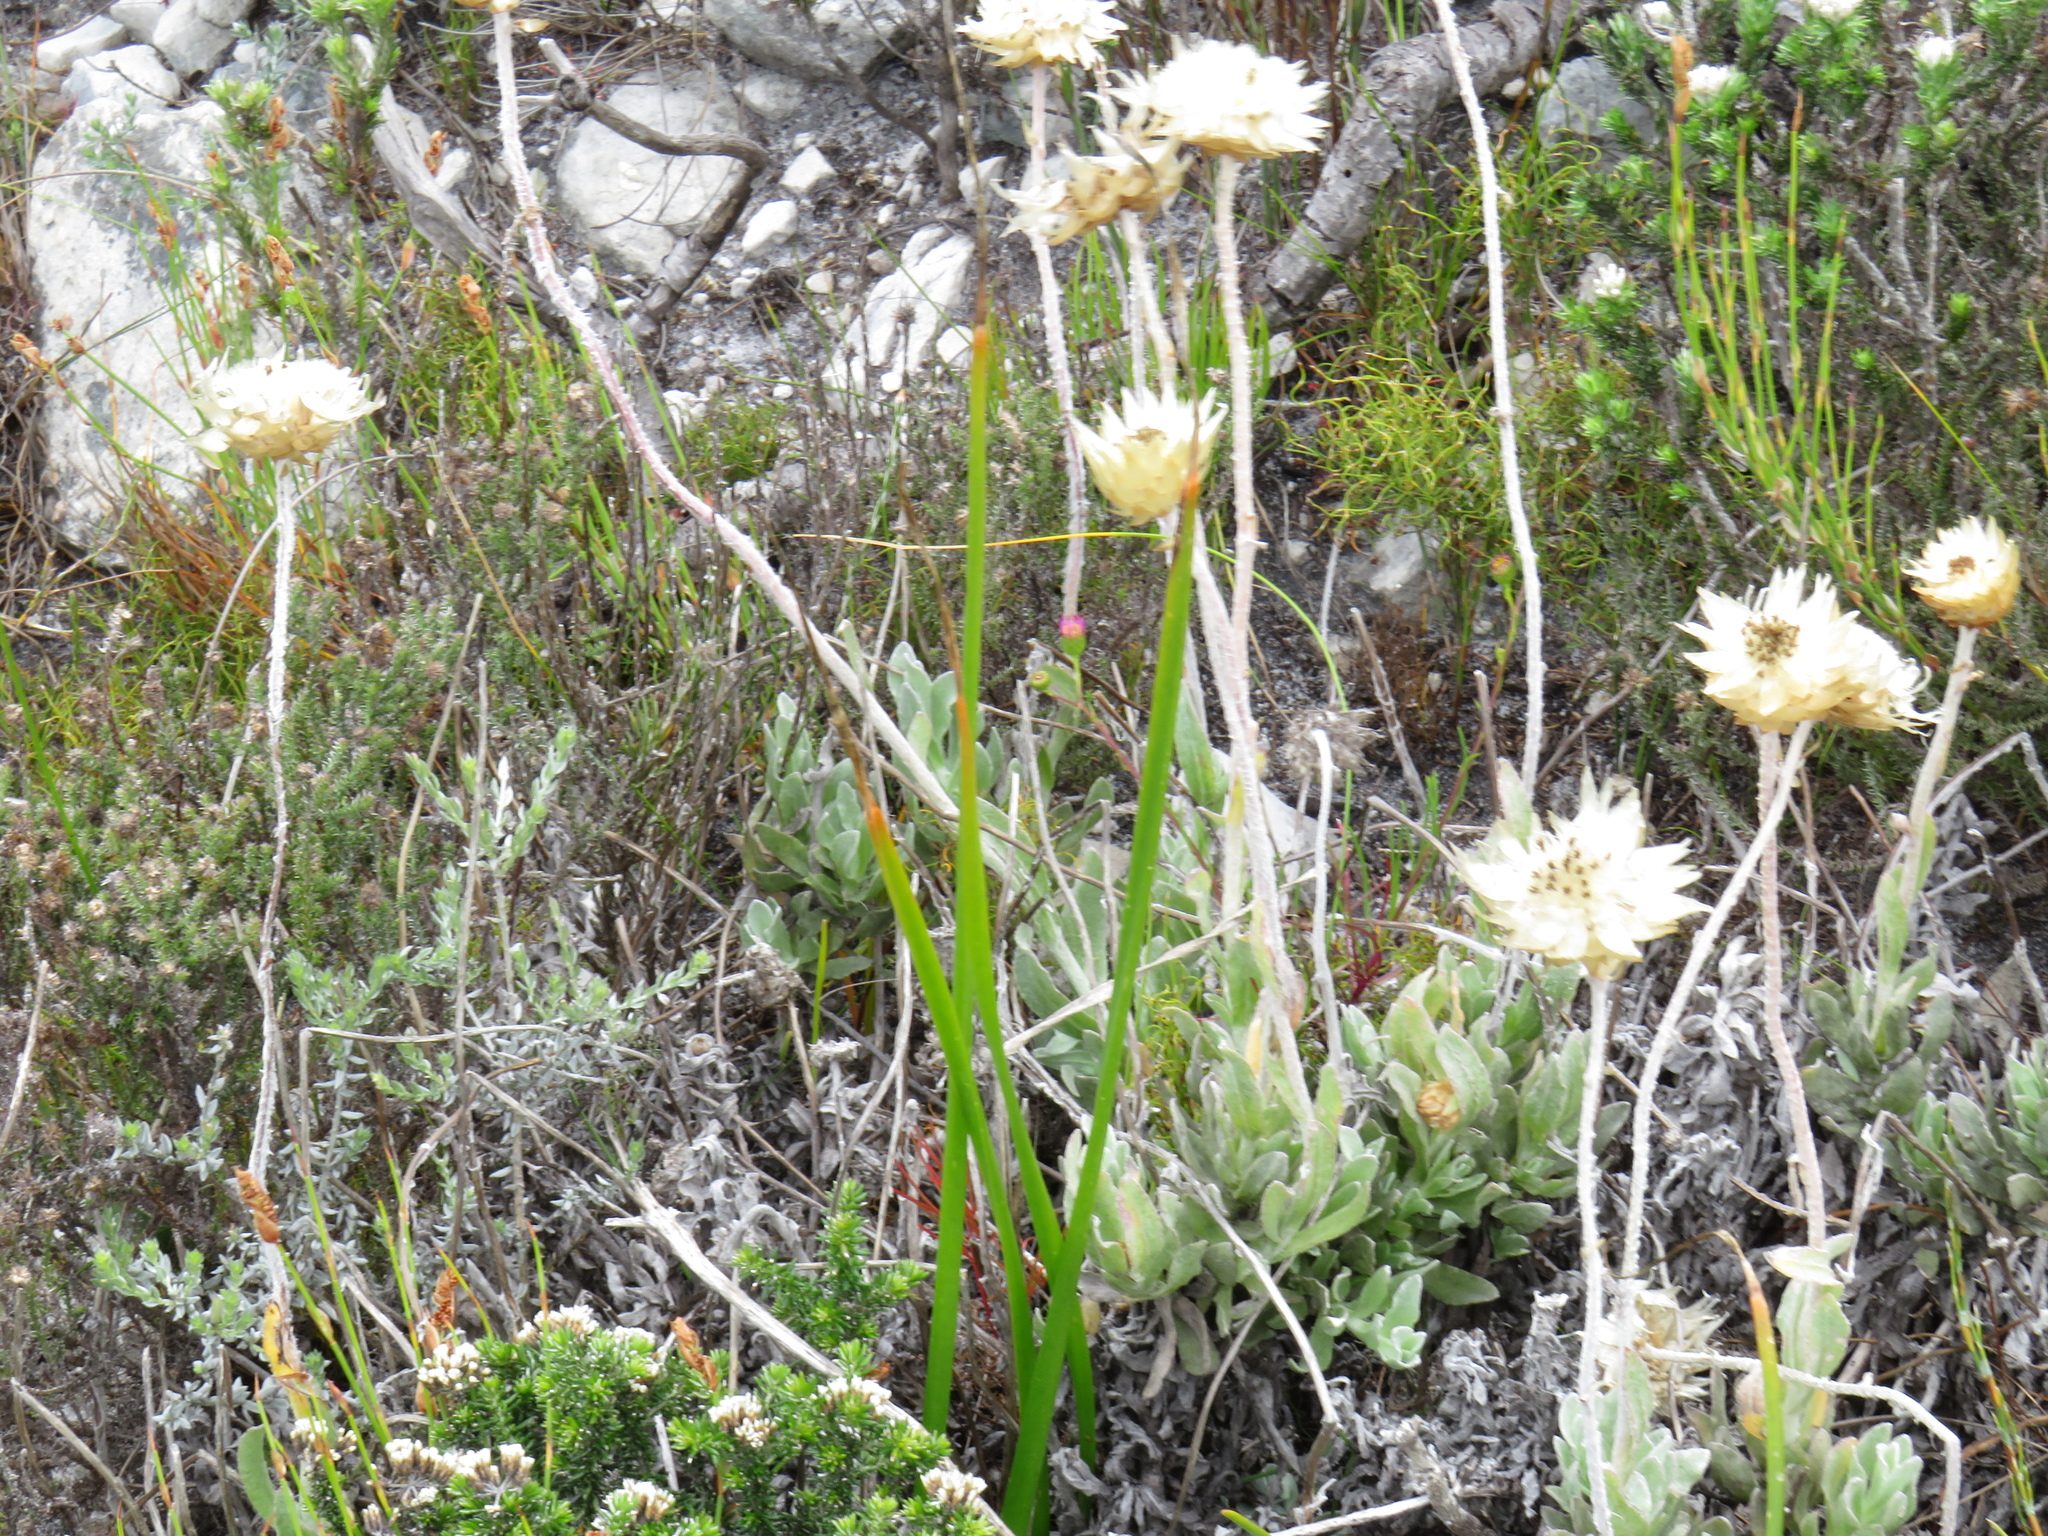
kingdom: Plantae
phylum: Tracheophyta
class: Magnoliopsida
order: Asterales
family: Asteraceae
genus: Syncarpha
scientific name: Syncarpha speciosissima
